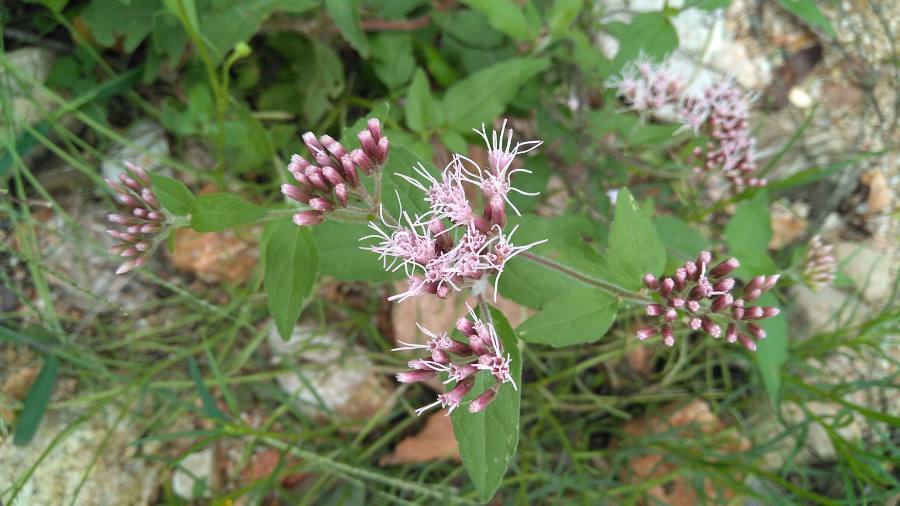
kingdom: Plantae
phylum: Tracheophyta
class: Magnoliopsida
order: Asterales
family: Asteraceae
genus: Eupatorium
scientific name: Eupatorium cannabinum
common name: Hemp-agrimony
